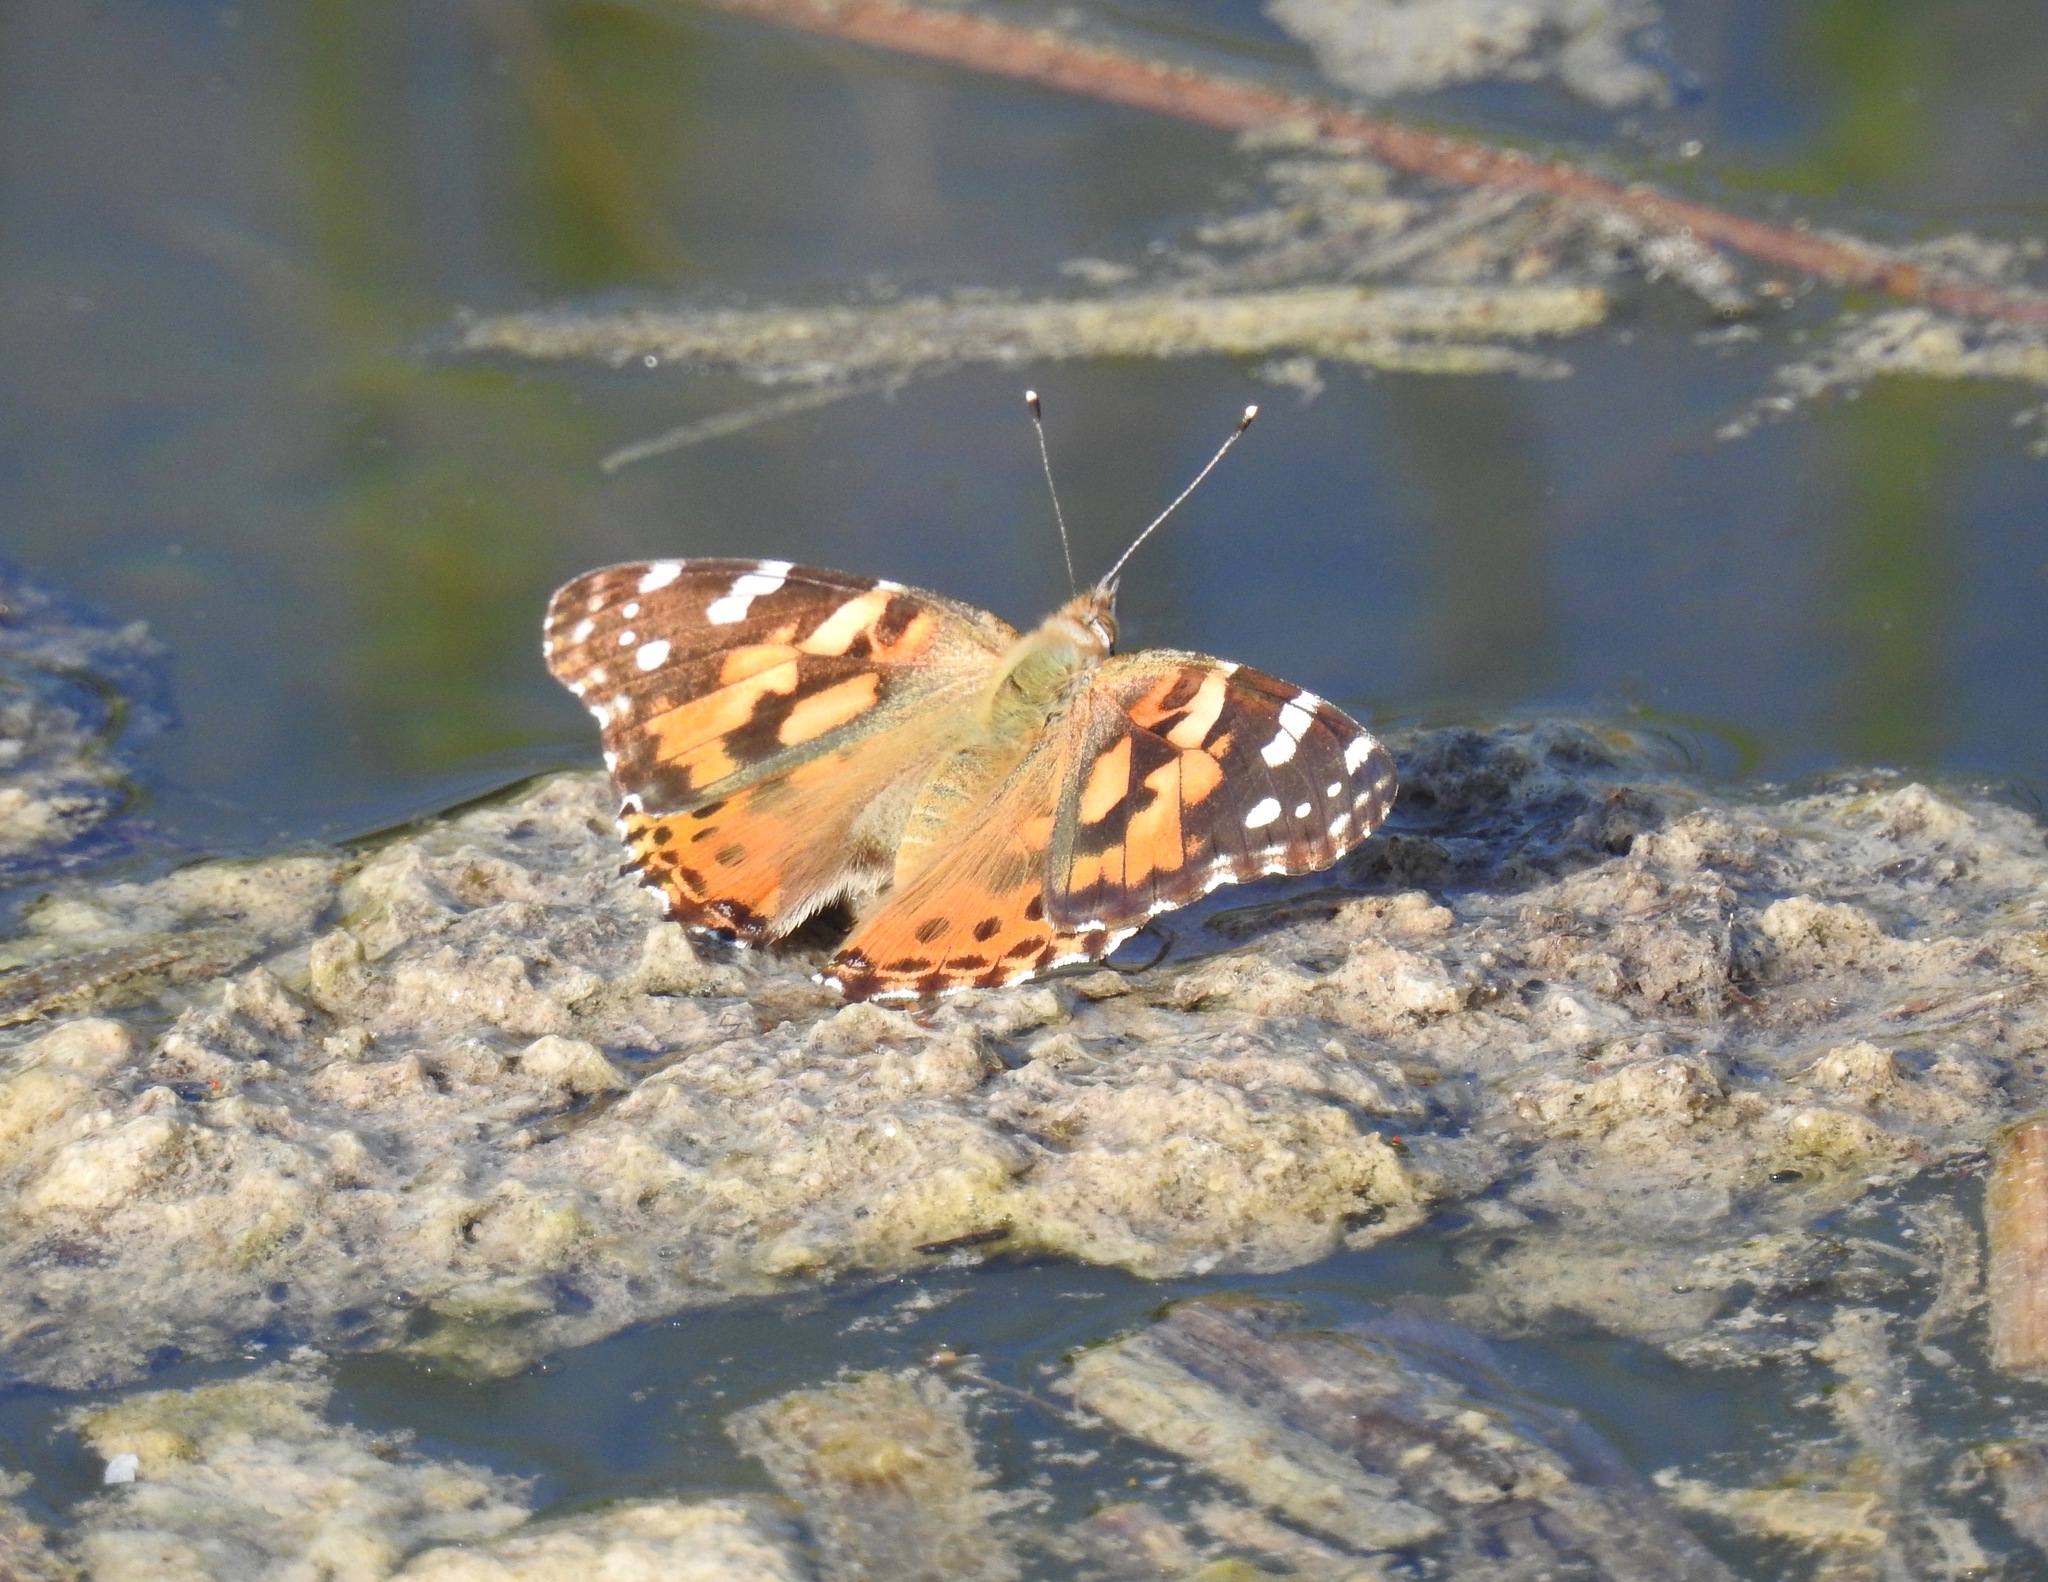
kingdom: Animalia
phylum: Arthropoda
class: Insecta
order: Lepidoptera
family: Nymphalidae
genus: Vanessa
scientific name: Vanessa cardui
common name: Painted lady
